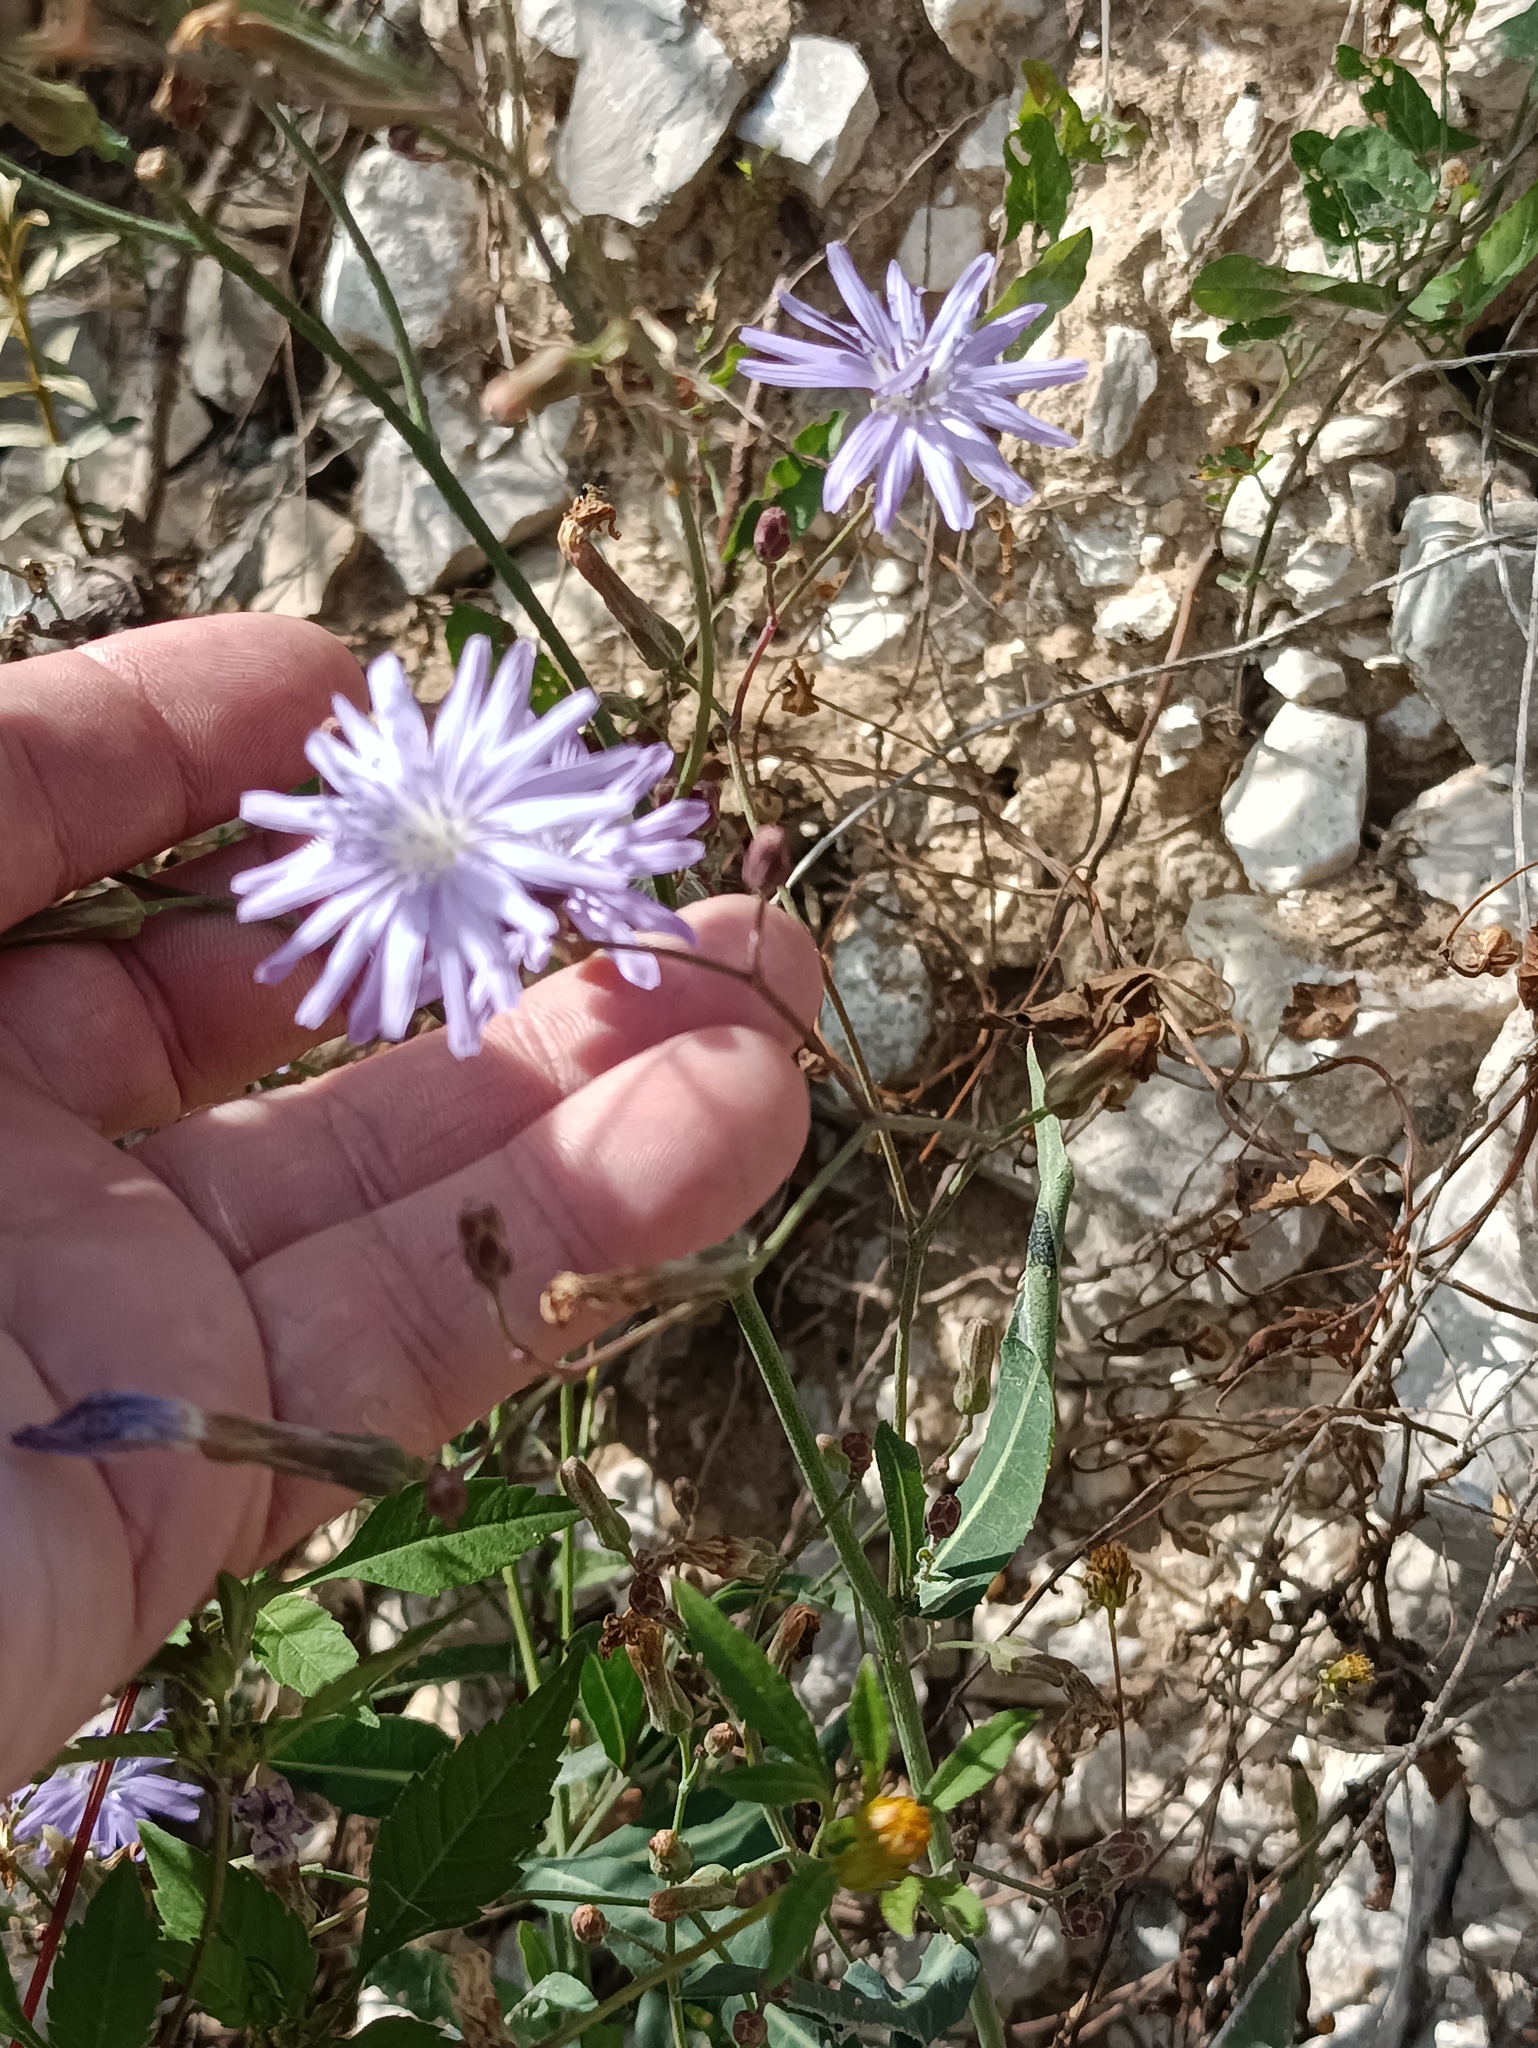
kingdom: Plantae
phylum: Tracheophyta
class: Magnoliopsida
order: Asterales
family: Asteraceae
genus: Lactuca
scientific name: Lactuca tatarica
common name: Blue lettuce
